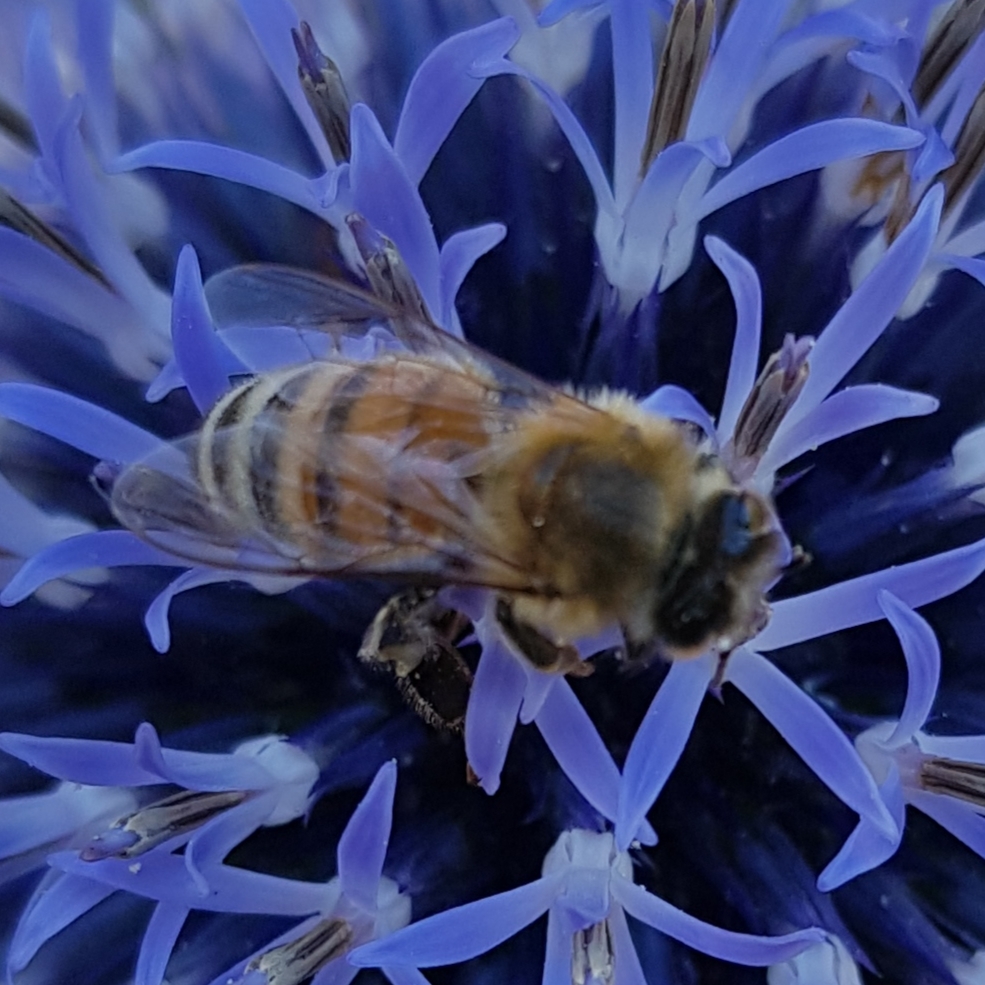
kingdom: Animalia
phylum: Arthropoda
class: Insecta
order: Hymenoptera
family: Apidae
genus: Apis
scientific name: Apis mellifera
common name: Honey bee
